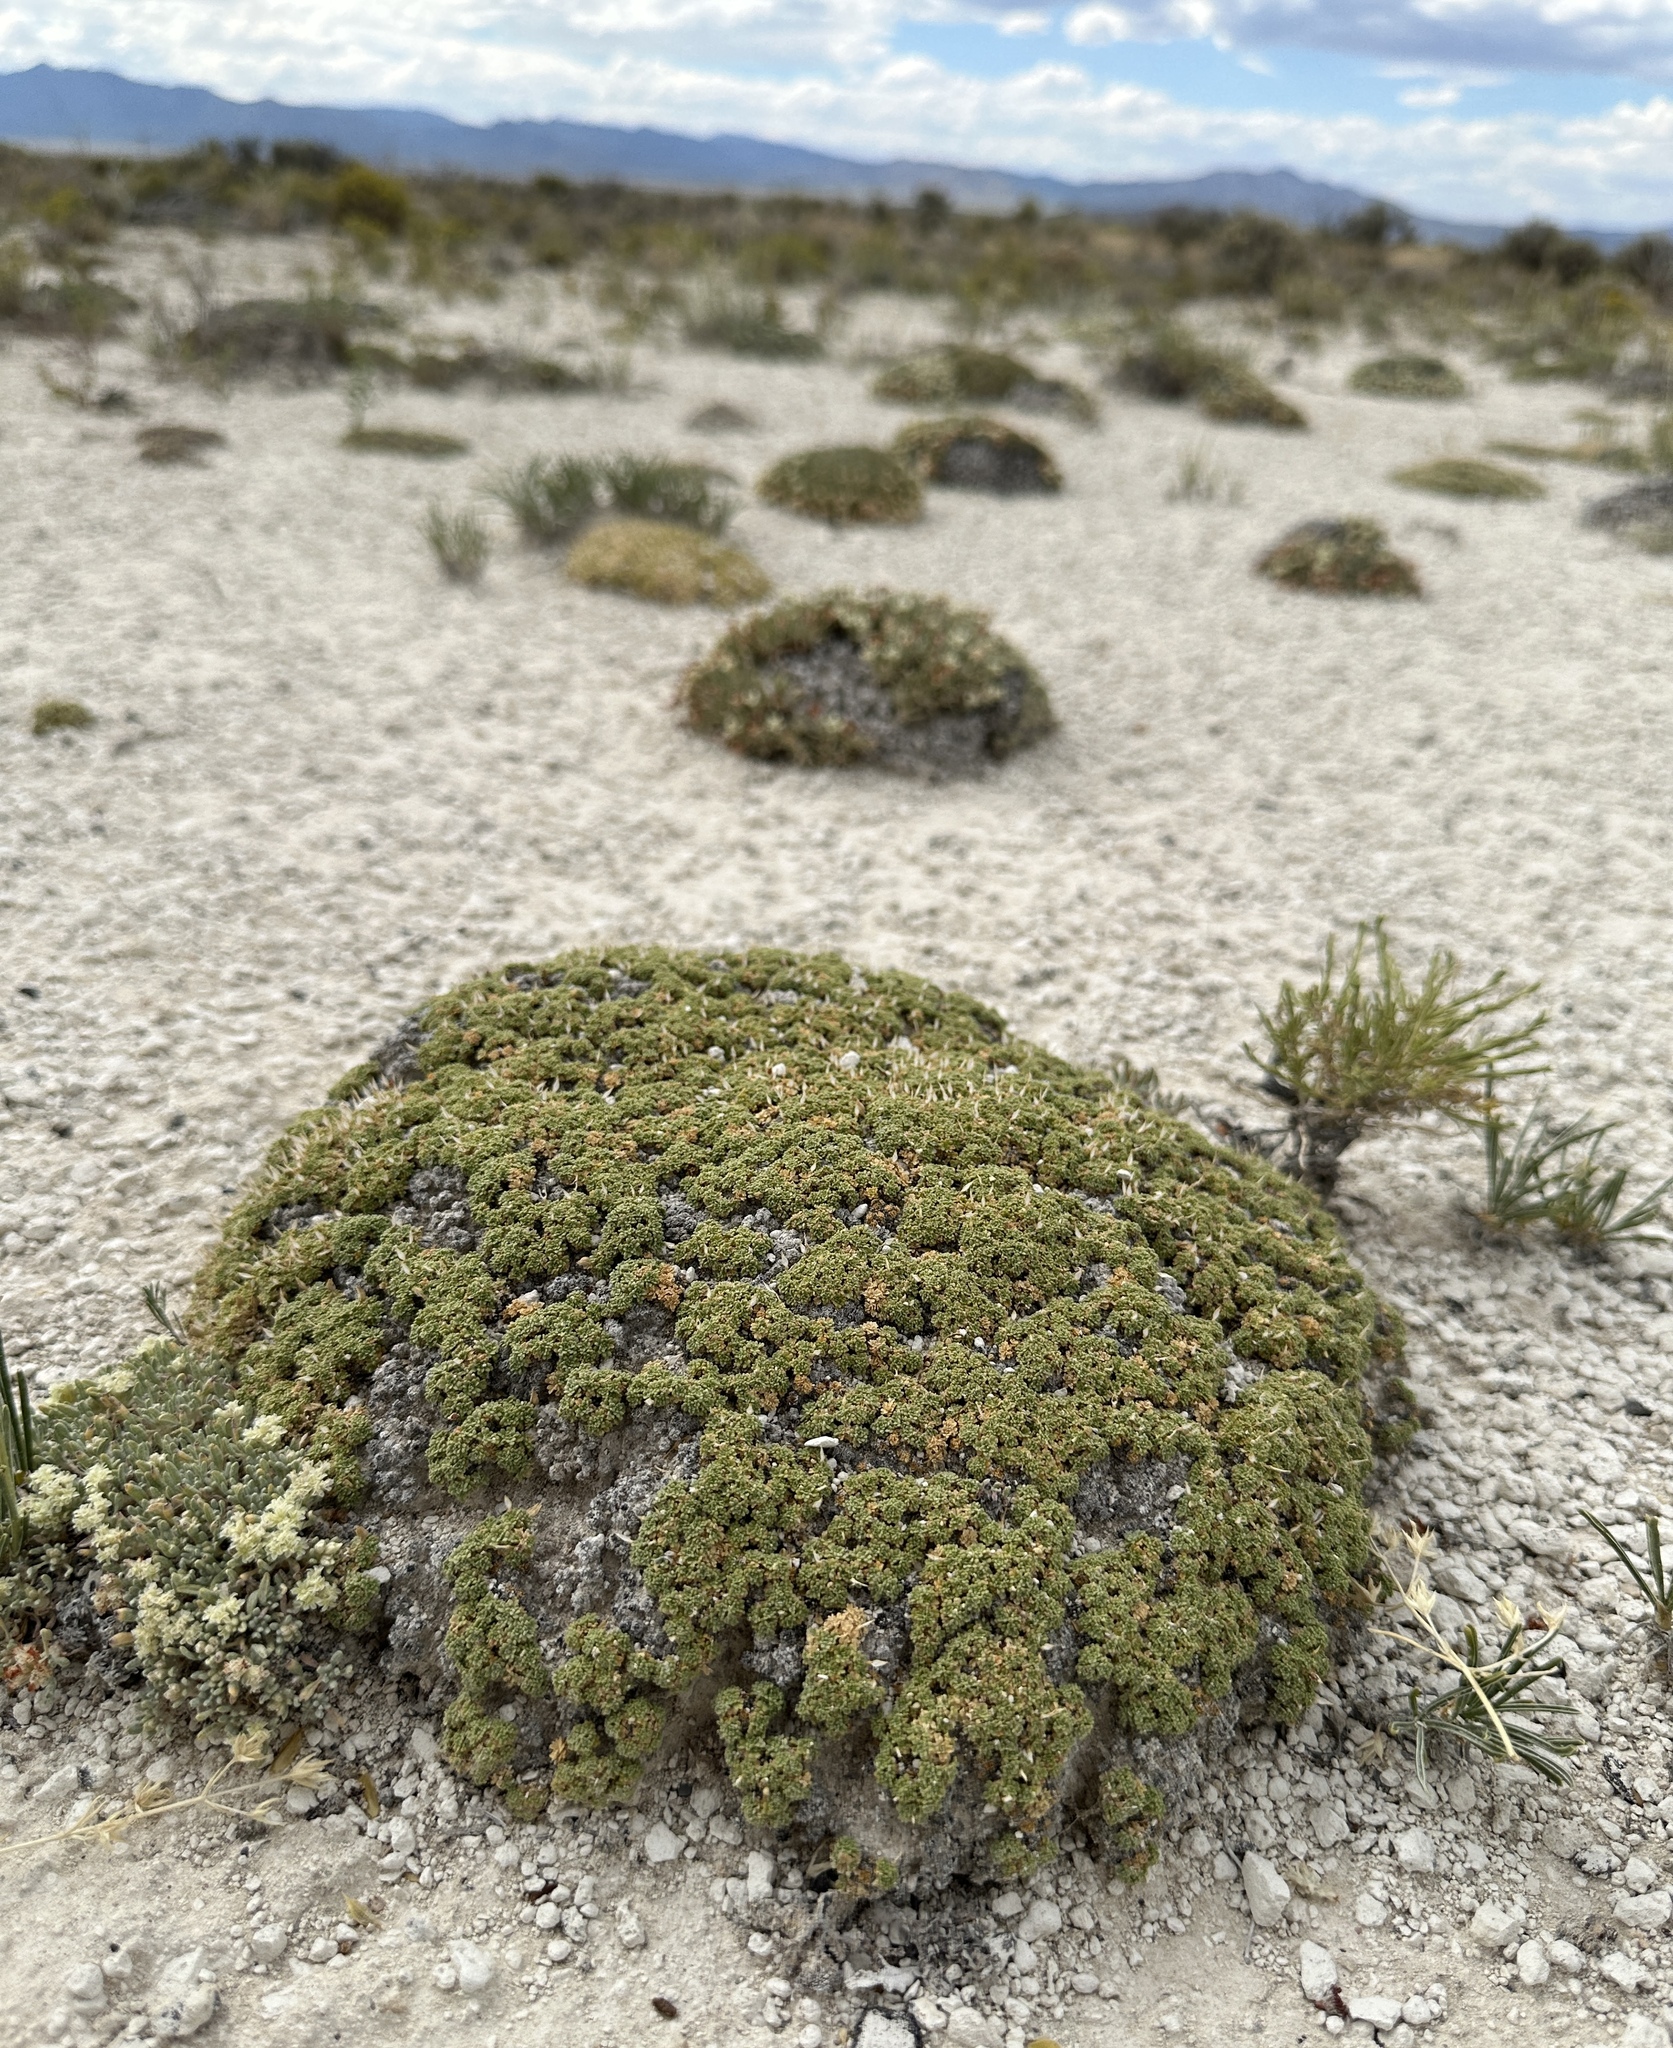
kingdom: Plantae
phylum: Tracheophyta
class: Magnoliopsida
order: Brassicales
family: Brassicaceae
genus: Lepidium
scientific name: Lepidium nanum
